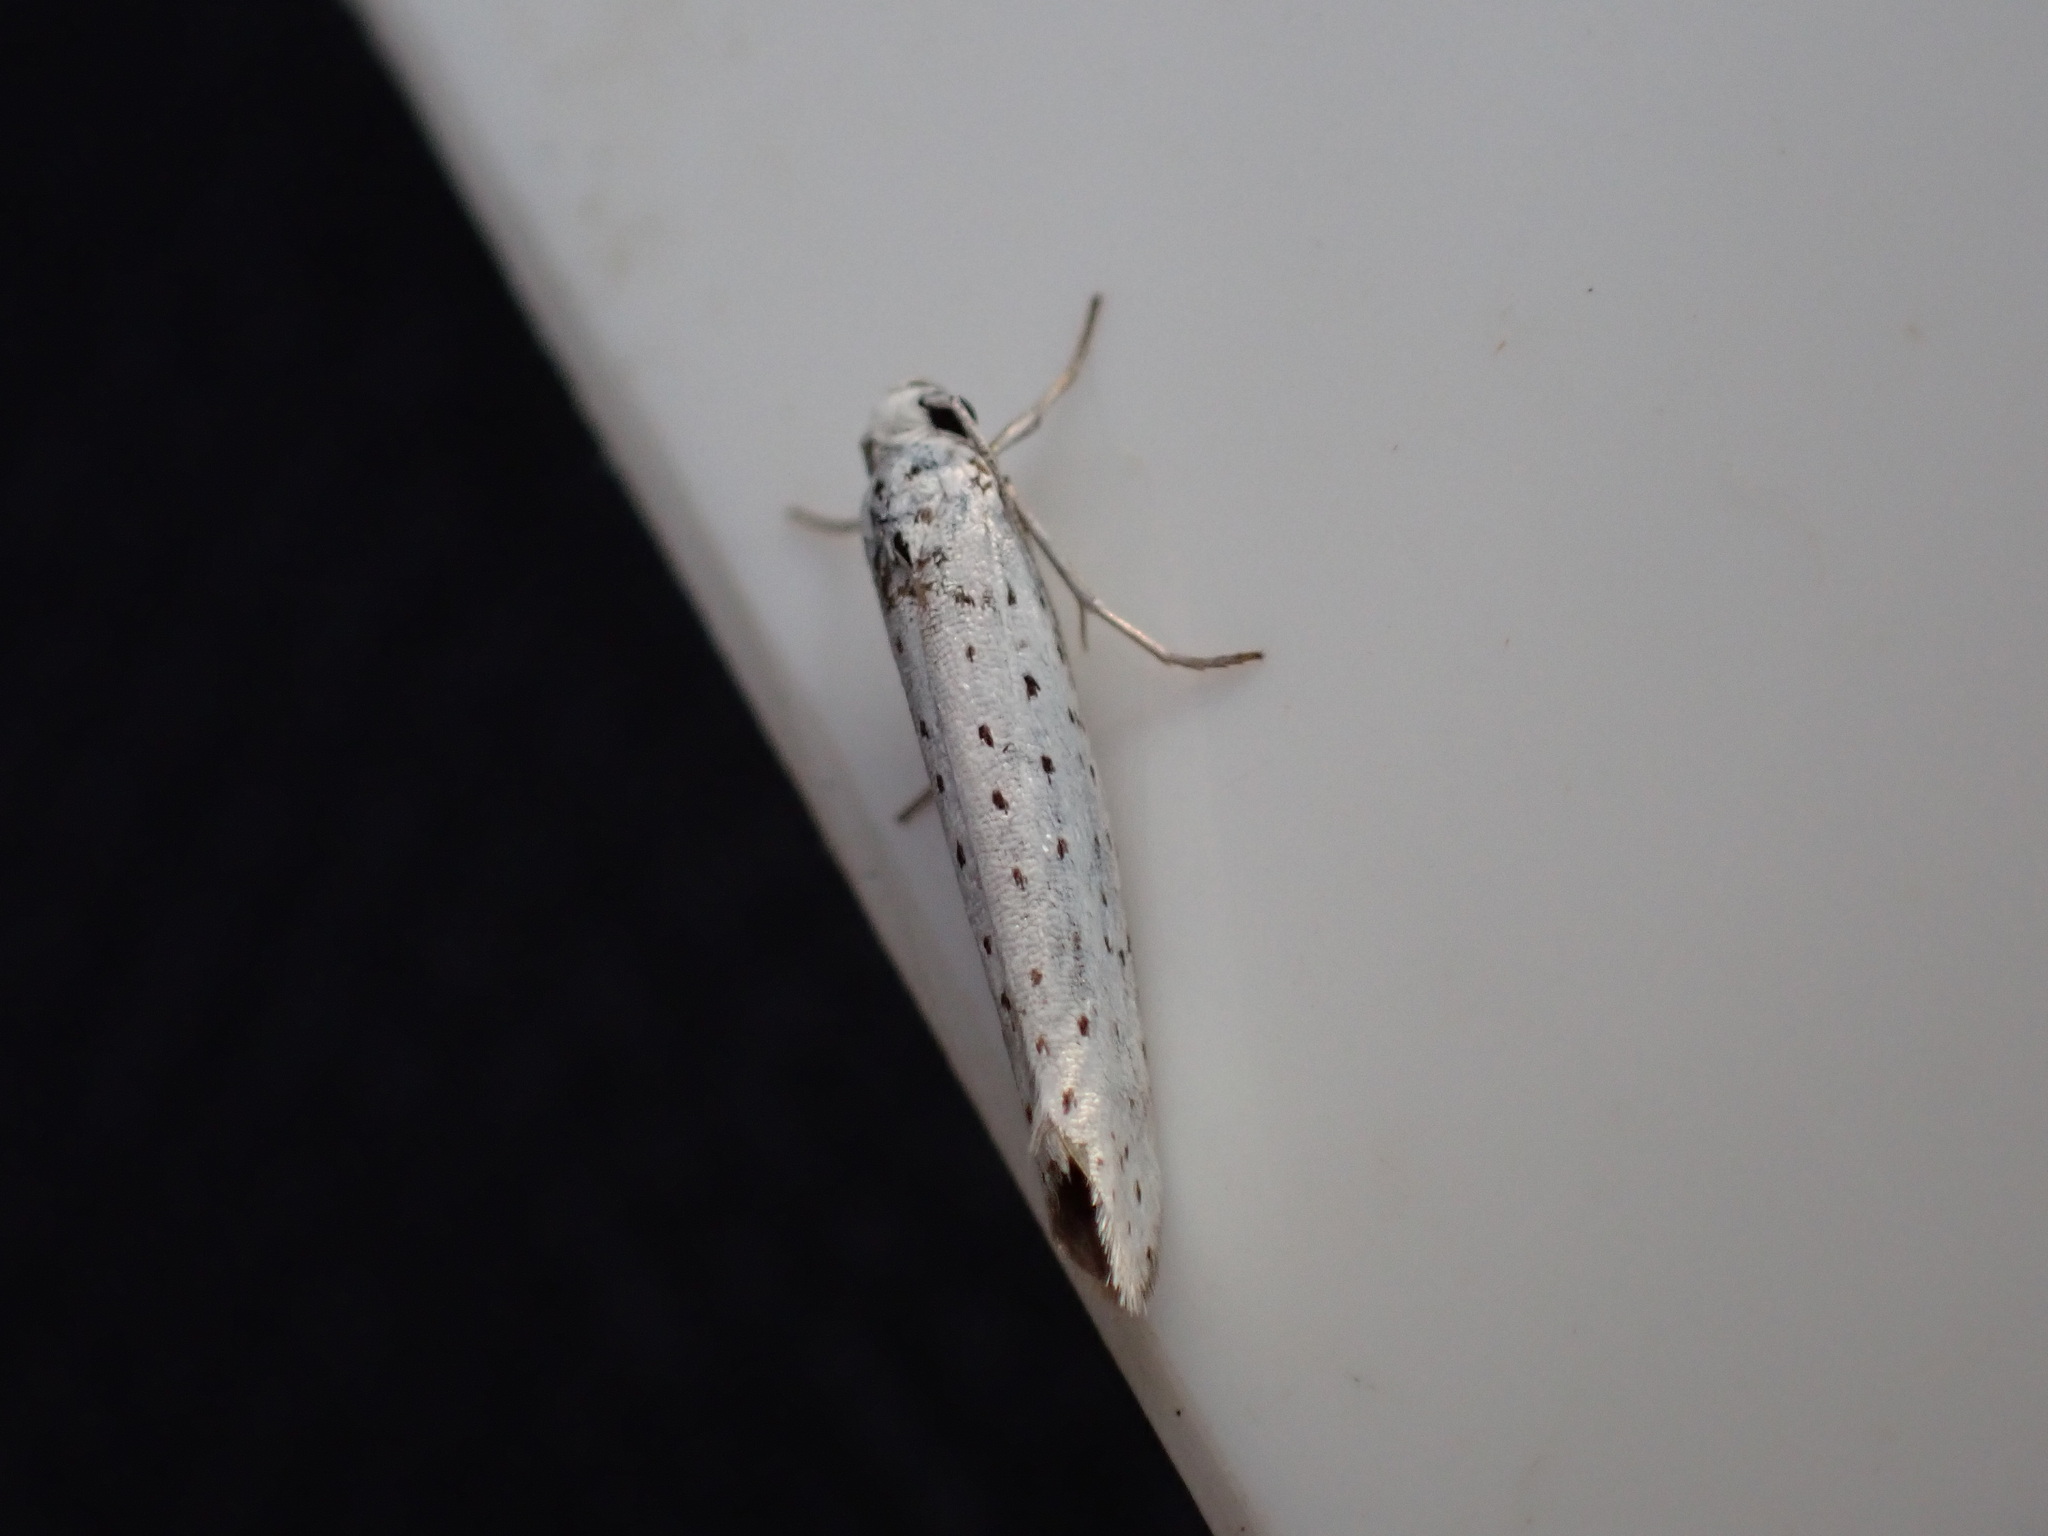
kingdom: Animalia
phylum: Arthropoda
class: Insecta
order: Lepidoptera
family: Yponomeutidae
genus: Yponomeuta
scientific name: Yponomeuta evonymella
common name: Bird-cherry ermine
